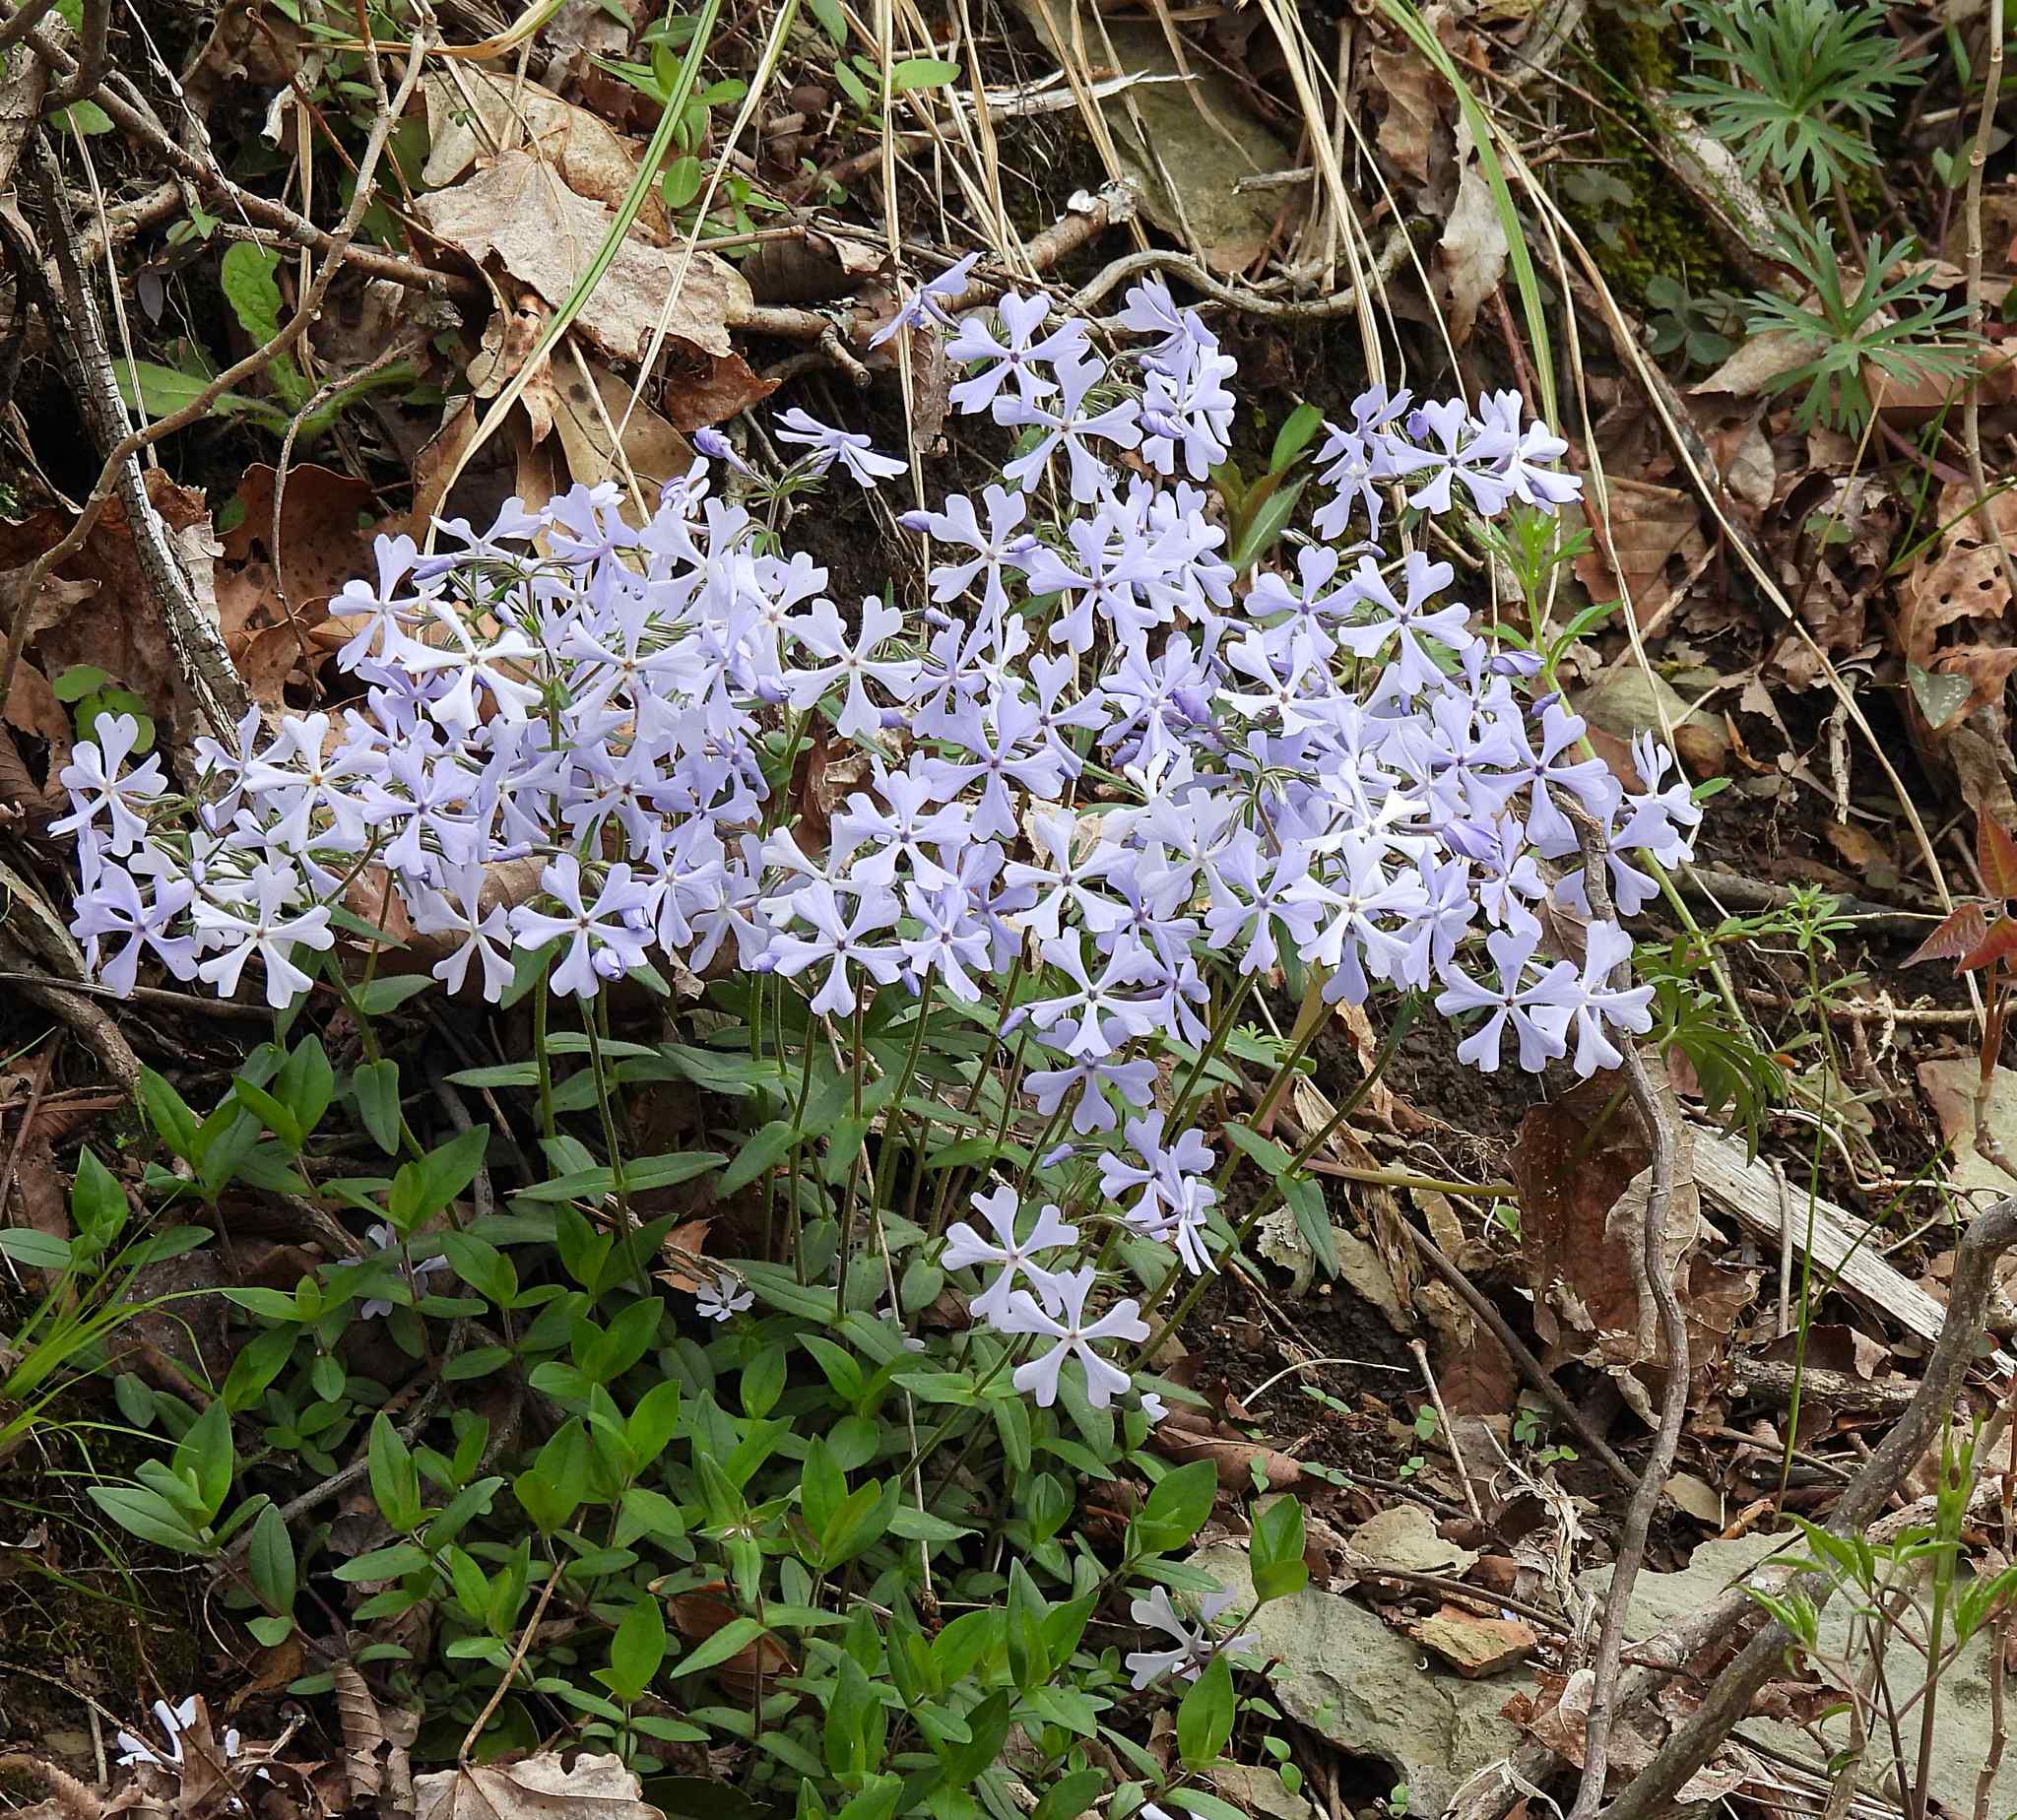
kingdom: Plantae
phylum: Tracheophyta
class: Magnoliopsida
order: Ericales
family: Polemoniaceae
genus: Phlox
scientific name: Phlox divaricata
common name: Blue phlox
